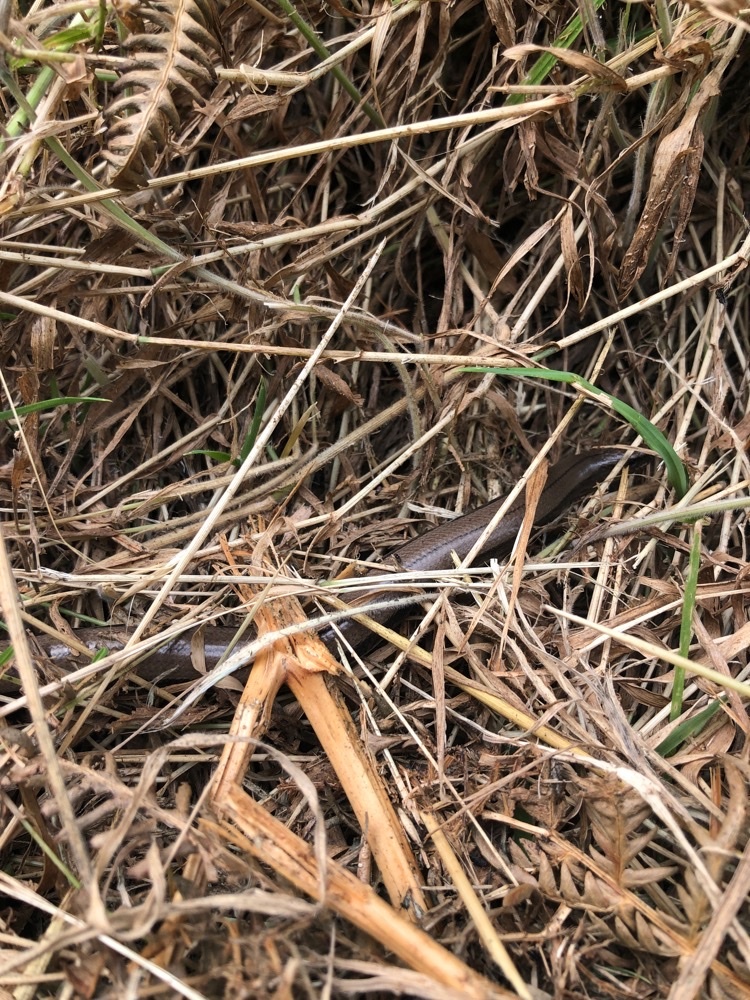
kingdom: Animalia
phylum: Chordata
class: Squamata
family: Anguidae
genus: Anguis
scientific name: Anguis fragilis
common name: Slow worm
